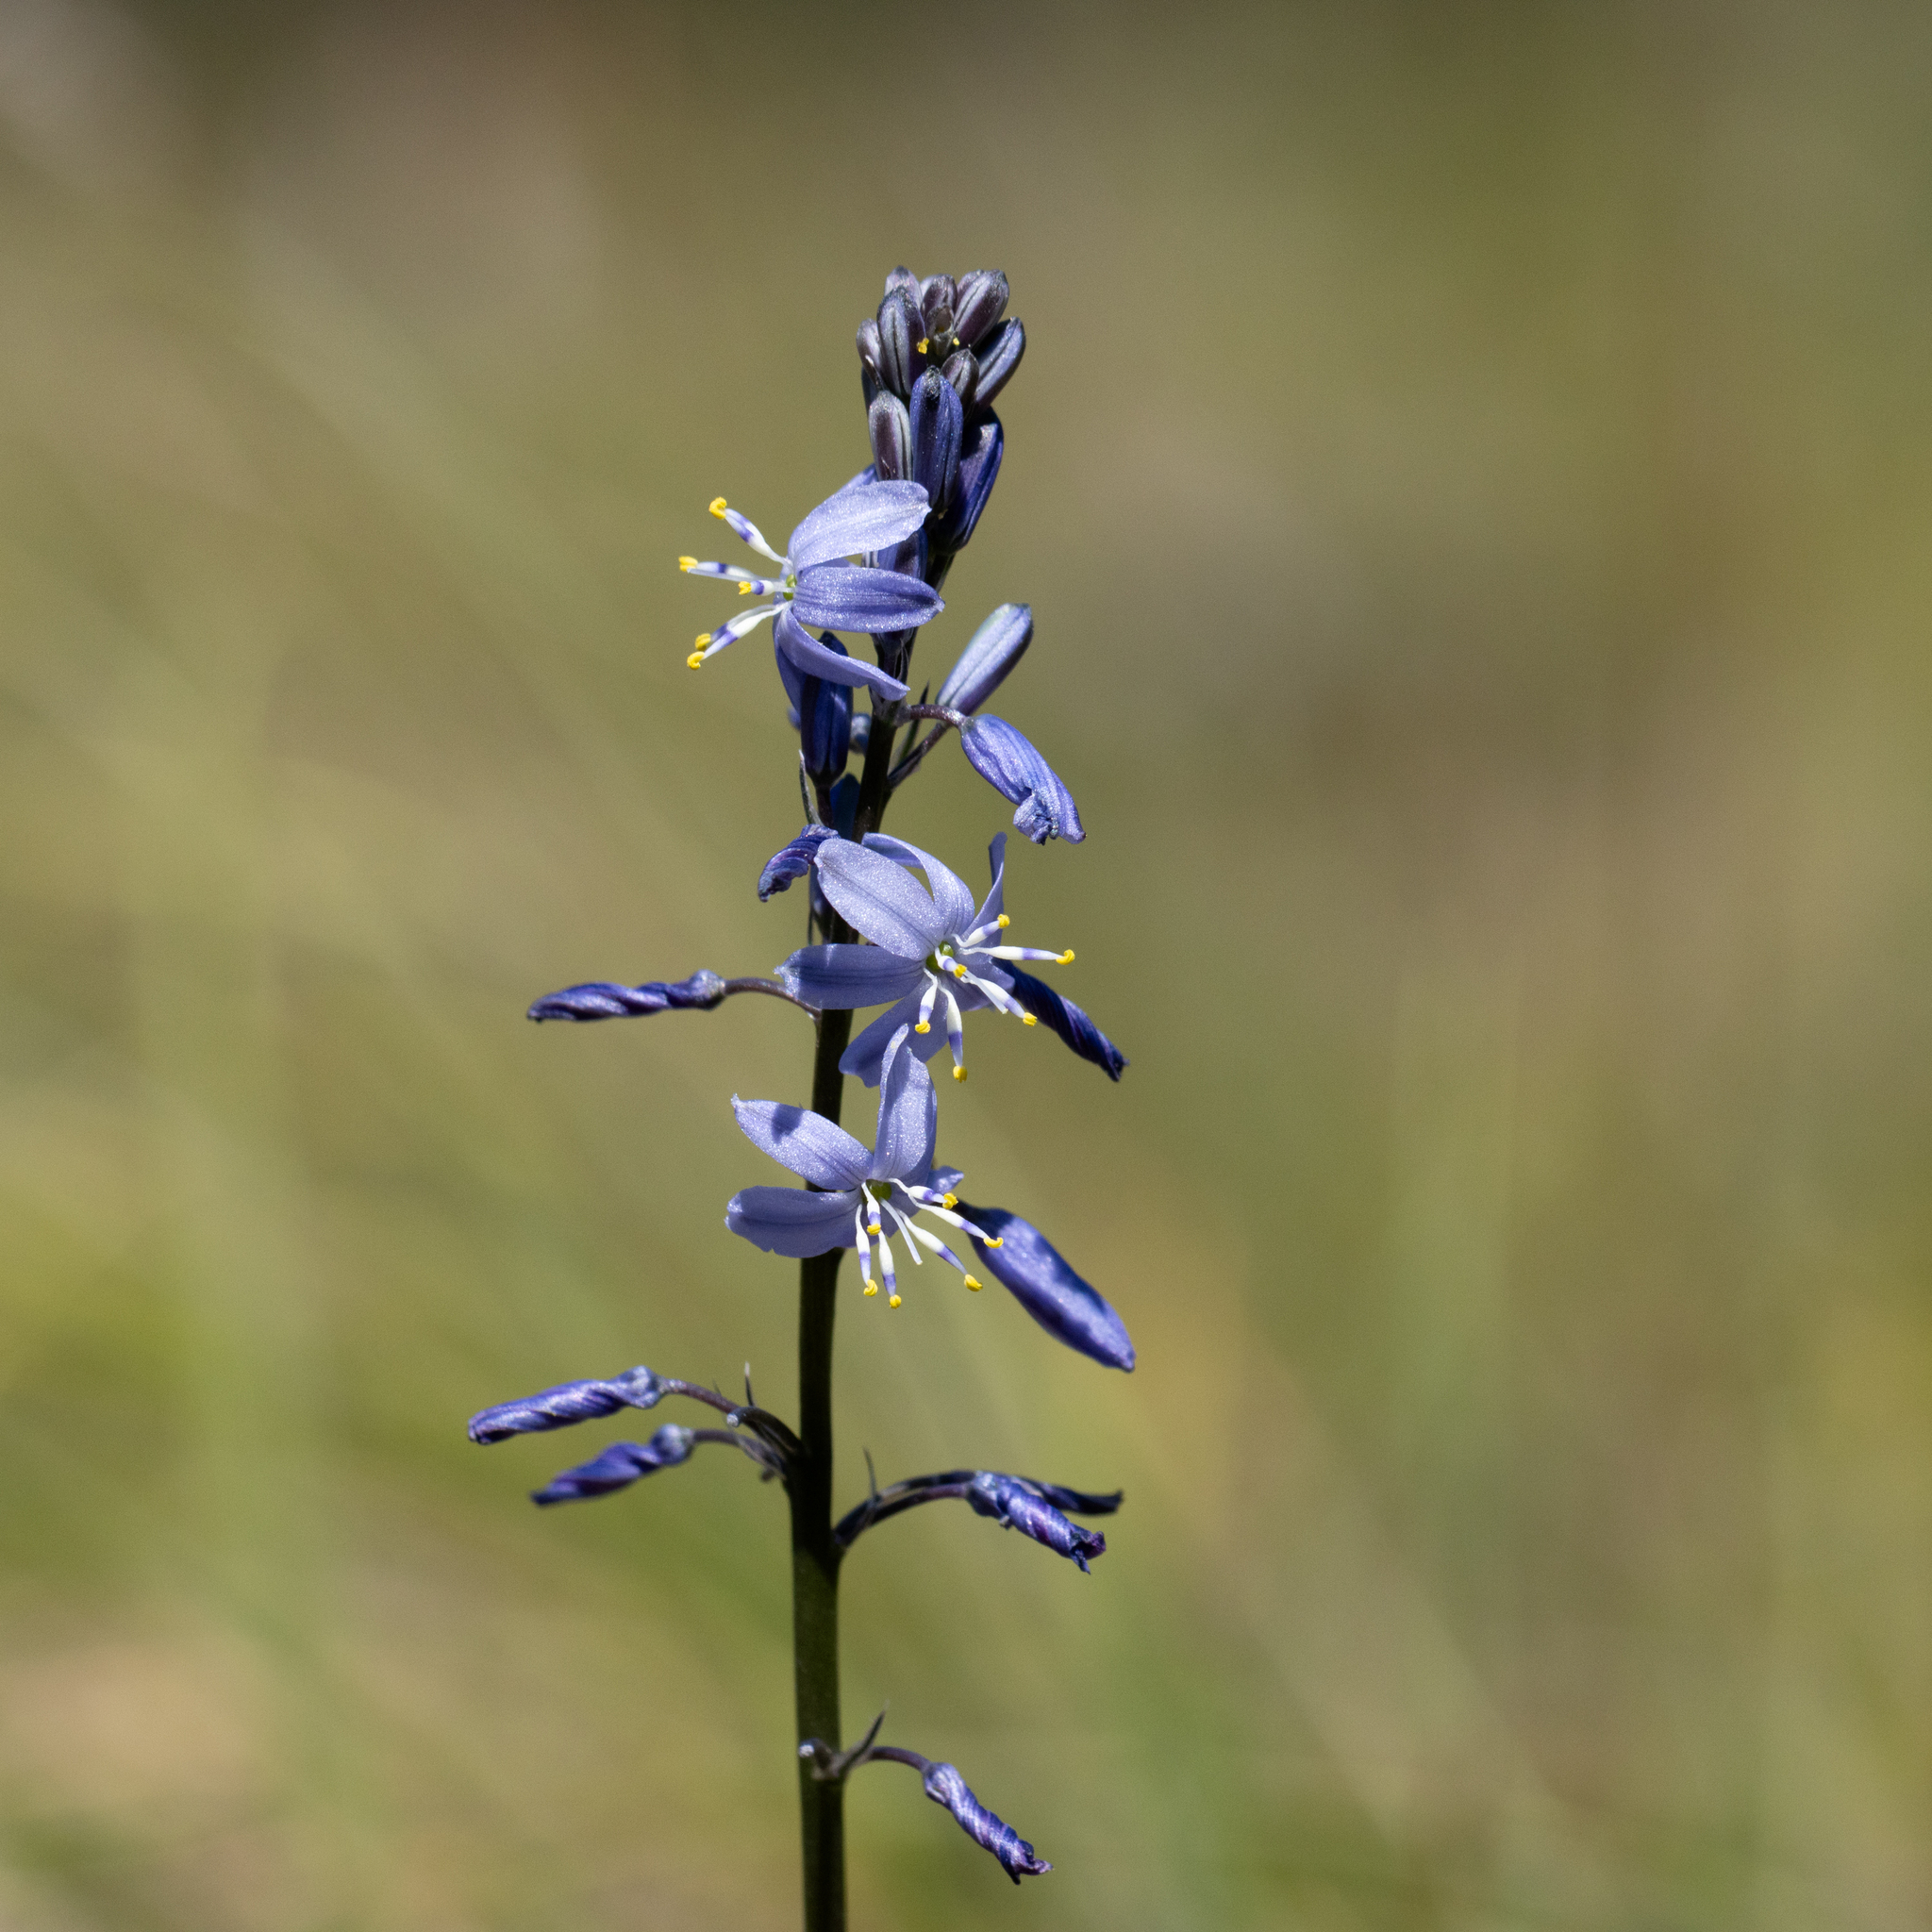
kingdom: Plantae
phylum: Tracheophyta
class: Liliopsida
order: Asparagales
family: Asphodelaceae
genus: Caesia
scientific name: Caesia calliantha
